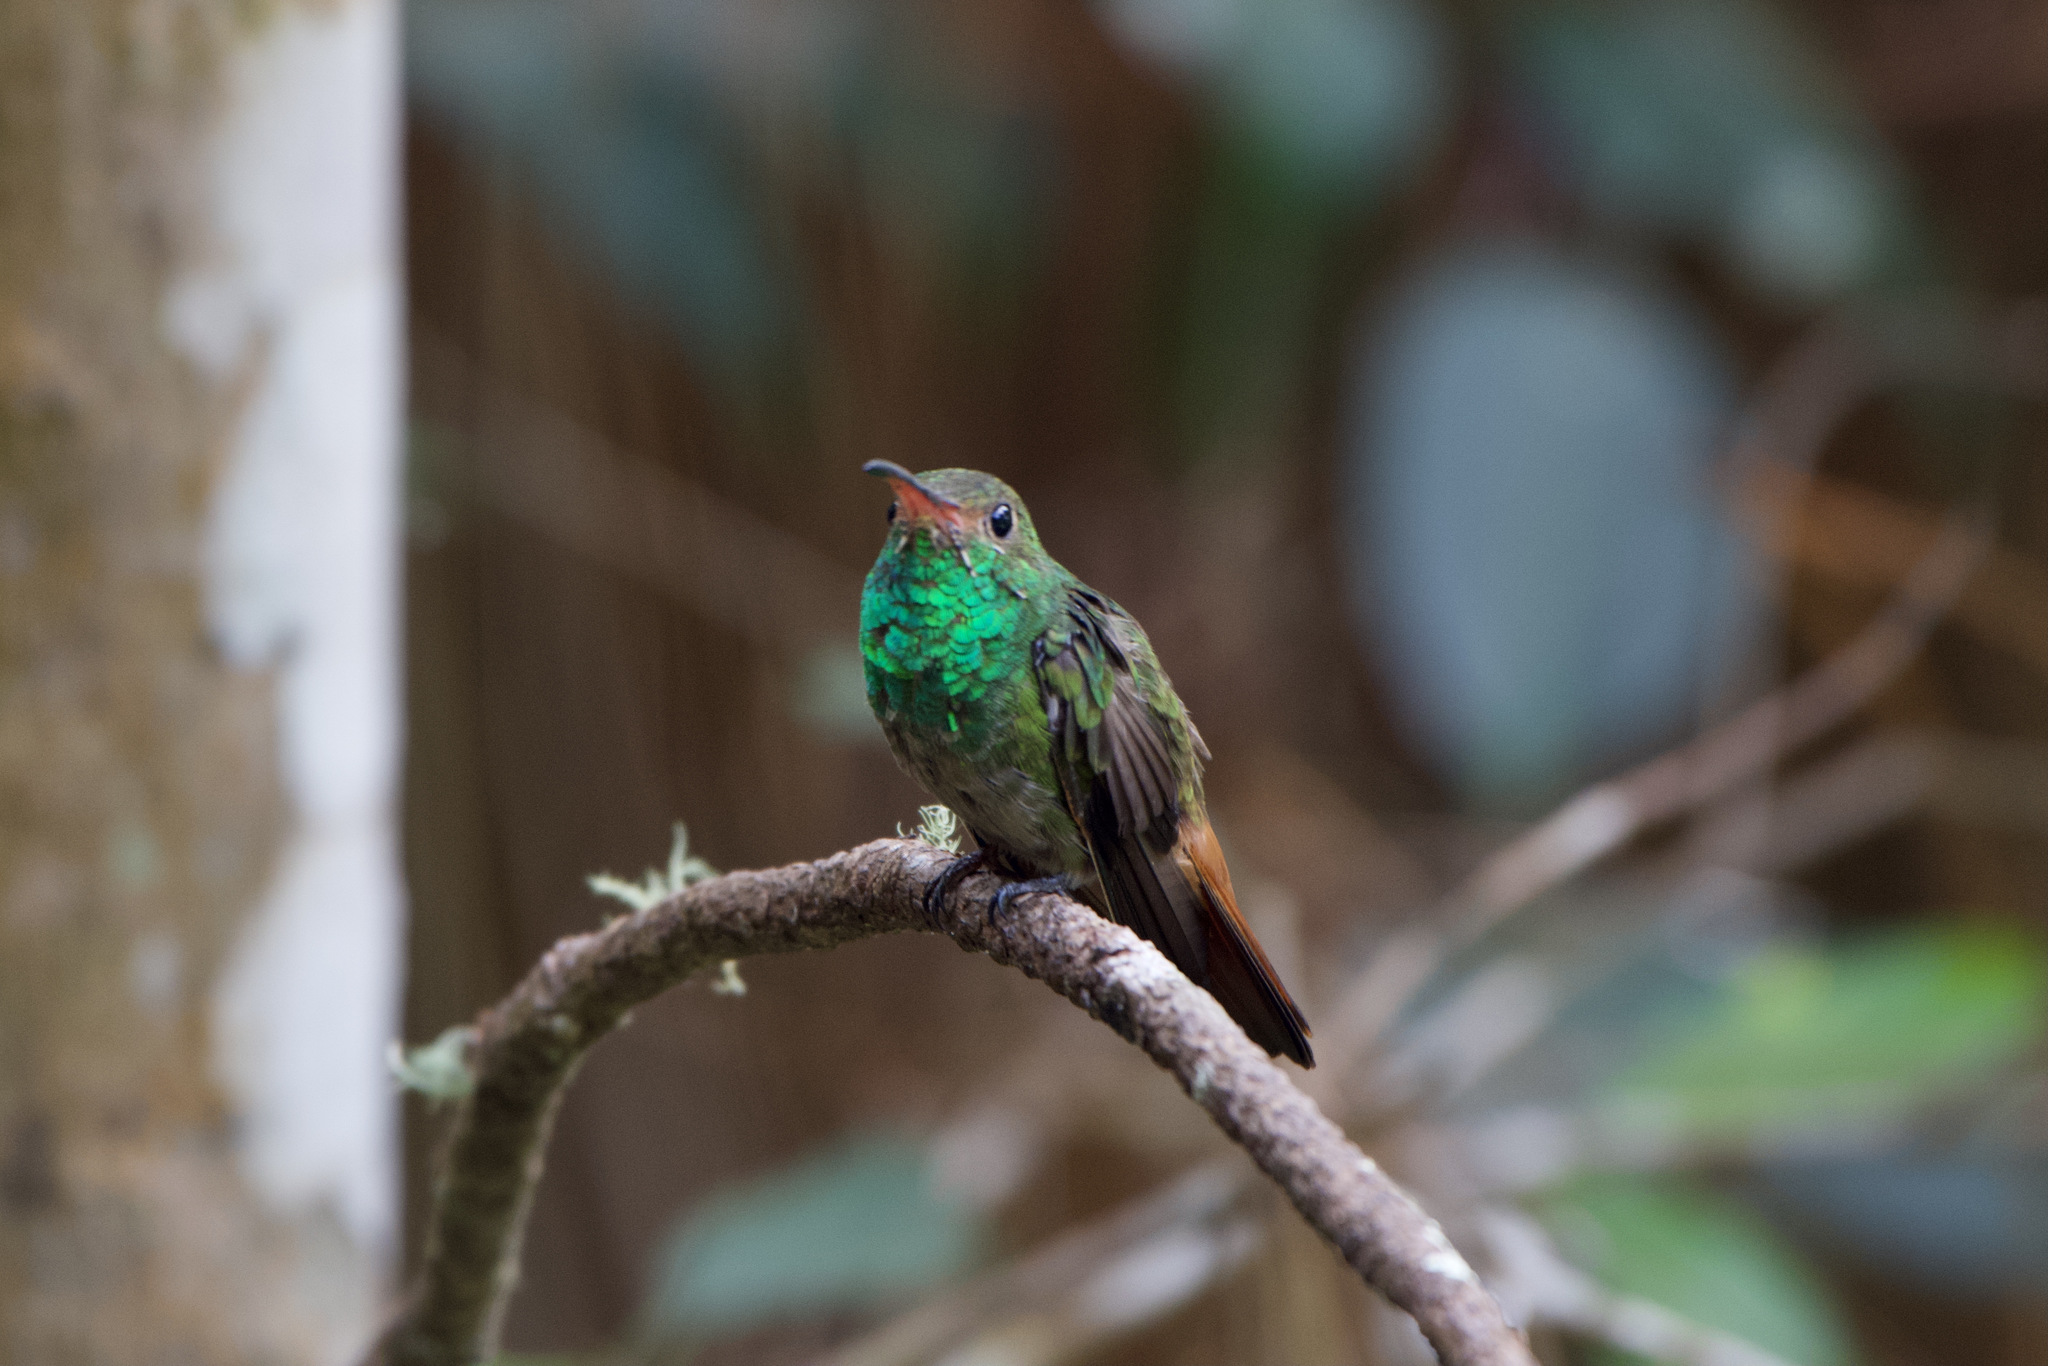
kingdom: Animalia
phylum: Chordata
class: Aves
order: Apodiformes
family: Trochilidae
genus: Amazilia
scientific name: Amazilia tzacatl
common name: Rufous-tailed hummingbird
